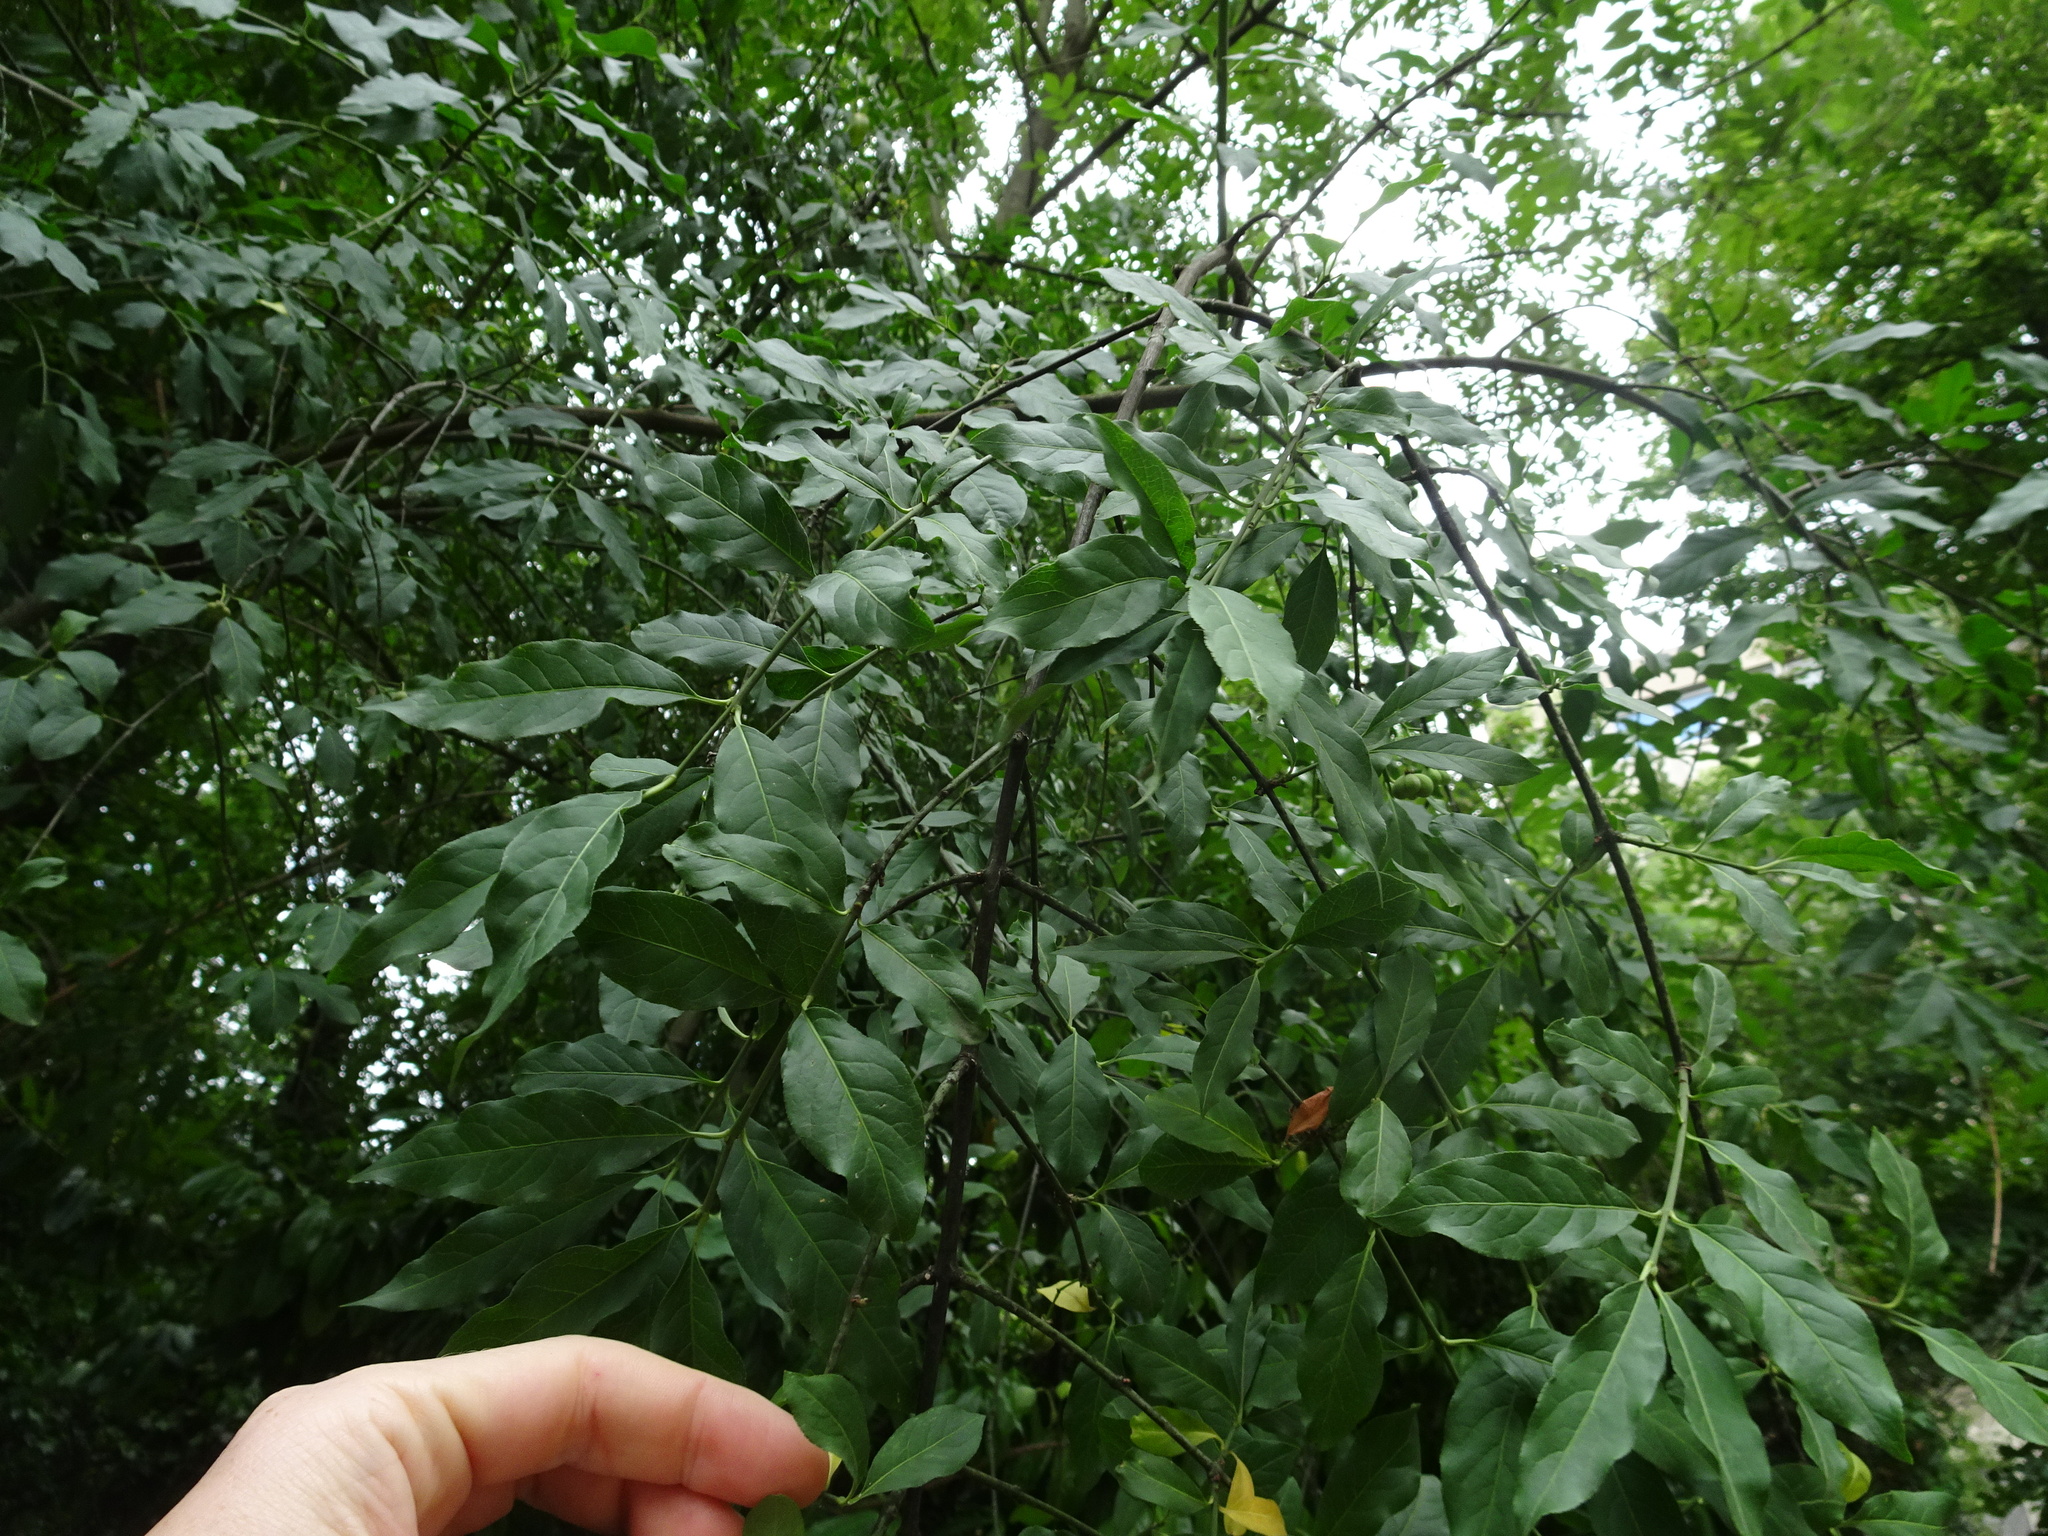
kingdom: Plantae
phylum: Tracheophyta
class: Magnoliopsida
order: Celastrales
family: Celastraceae
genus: Euonymus
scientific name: Euonymus europaeus
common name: Spindle
